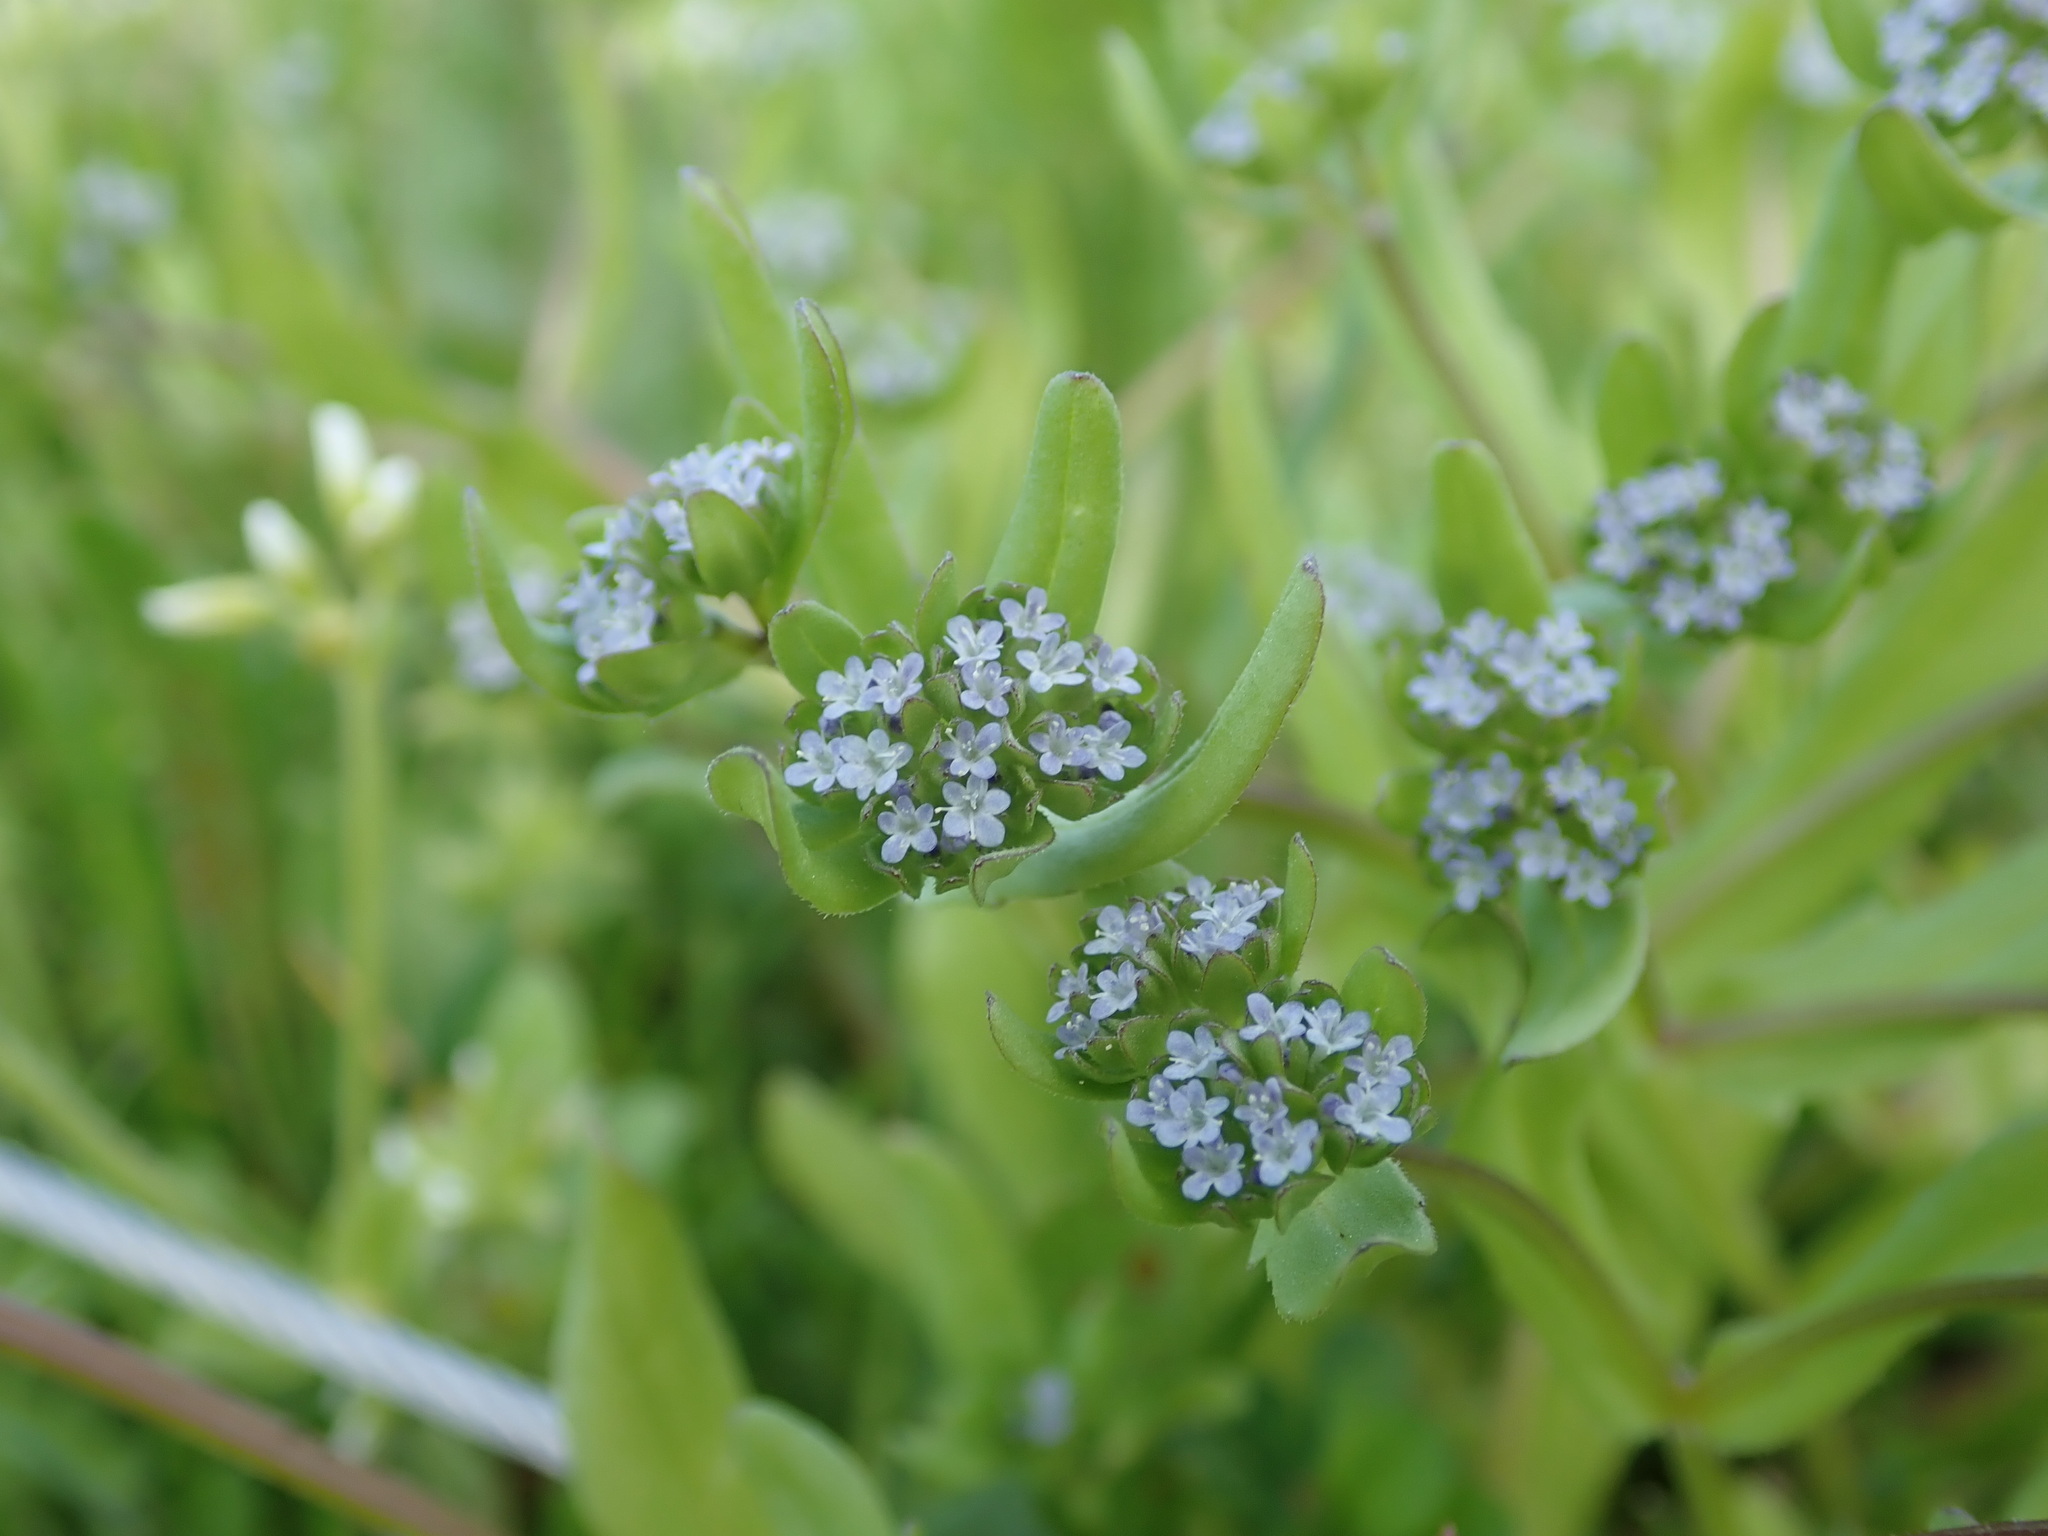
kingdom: Plantae
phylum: Tracheophyta
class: Magnoliopsida
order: Dipsacales
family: Caprifoliaceae
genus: Valerianella
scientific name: Valerianella locusta
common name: Common cornsalad
